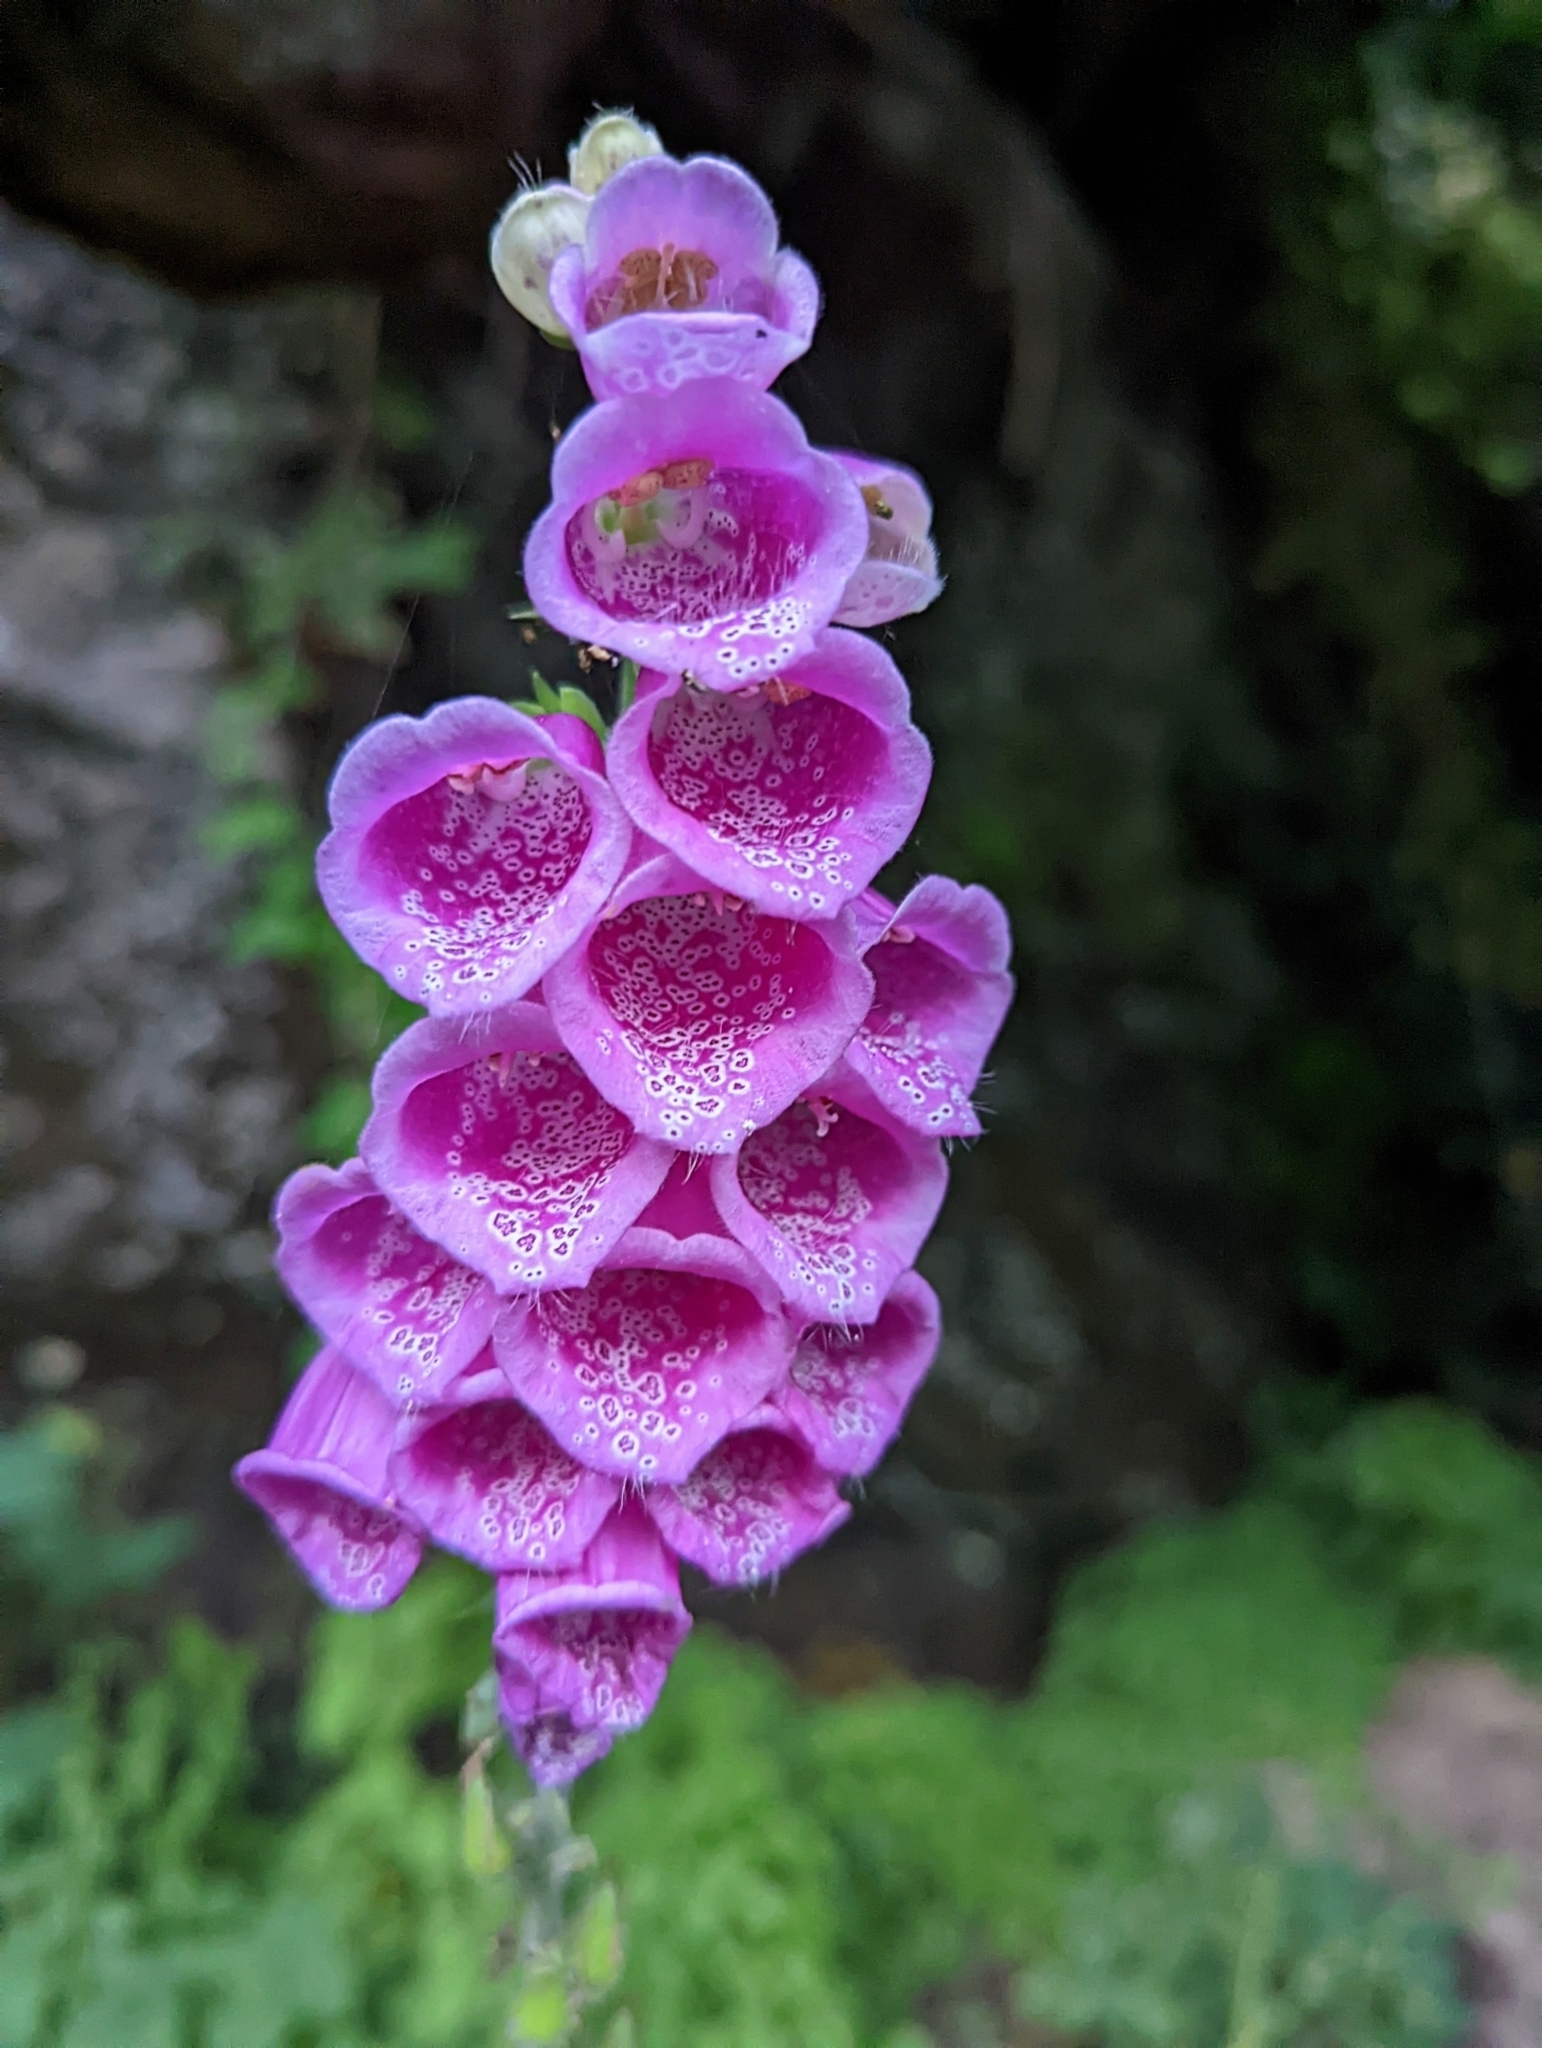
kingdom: Plantae
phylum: Tracheophyta
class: Magnoliopsida
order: Lamiales
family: Plantaginaceae
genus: Digitalis
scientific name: Digitalis purpurea
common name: Foxglove
